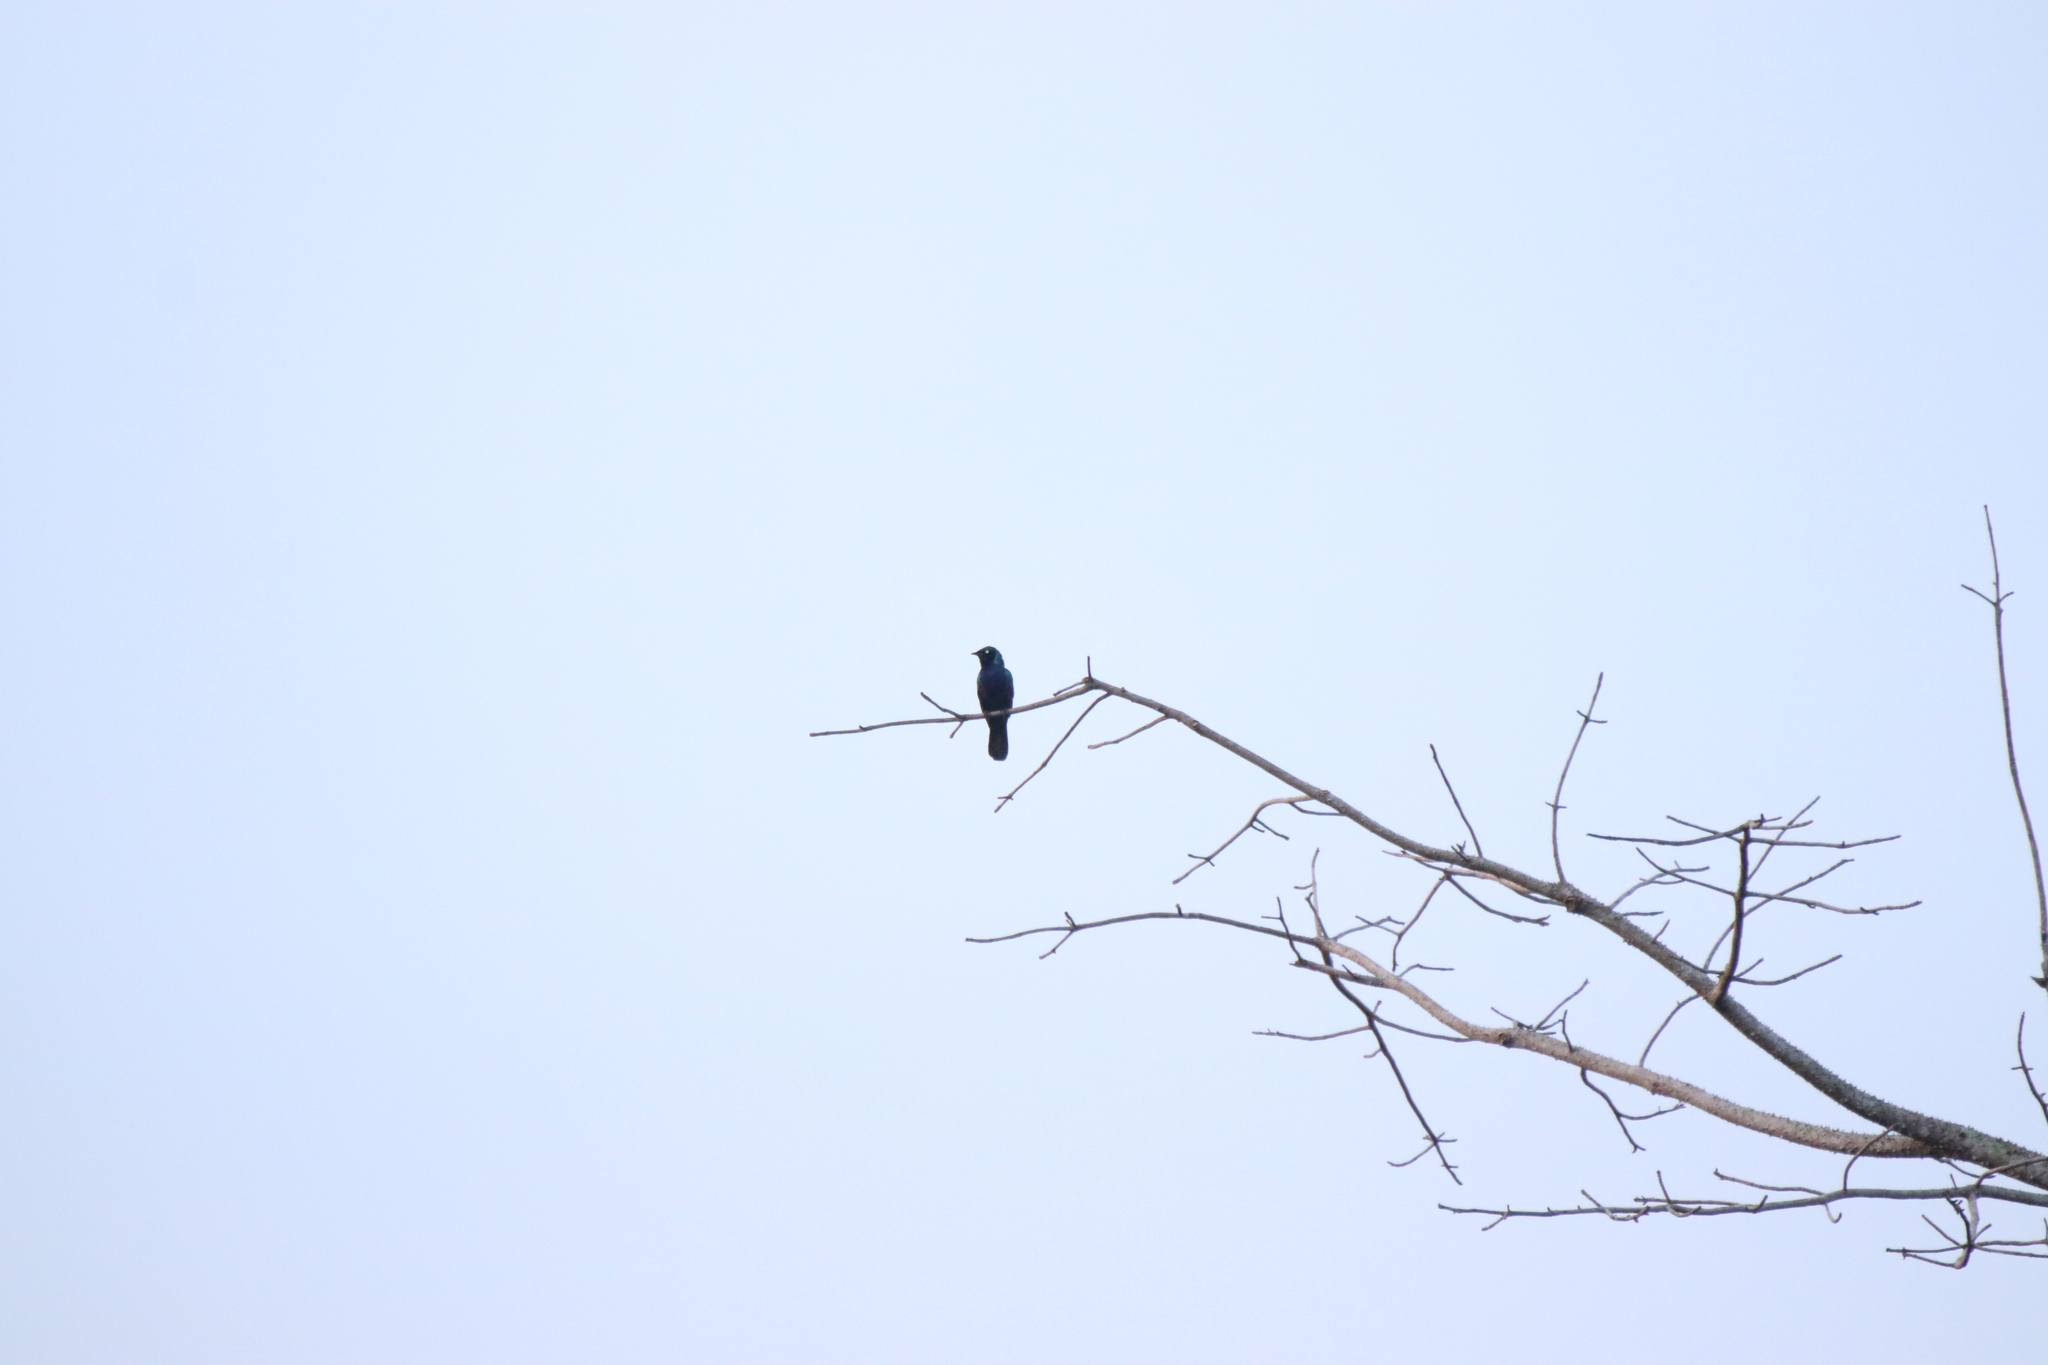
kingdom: Animalia
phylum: Chordata
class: Aves
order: Passeriformes
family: Sturnidae
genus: Lamprotornis
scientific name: Lamprotornis splendidus
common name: Splendid starling
